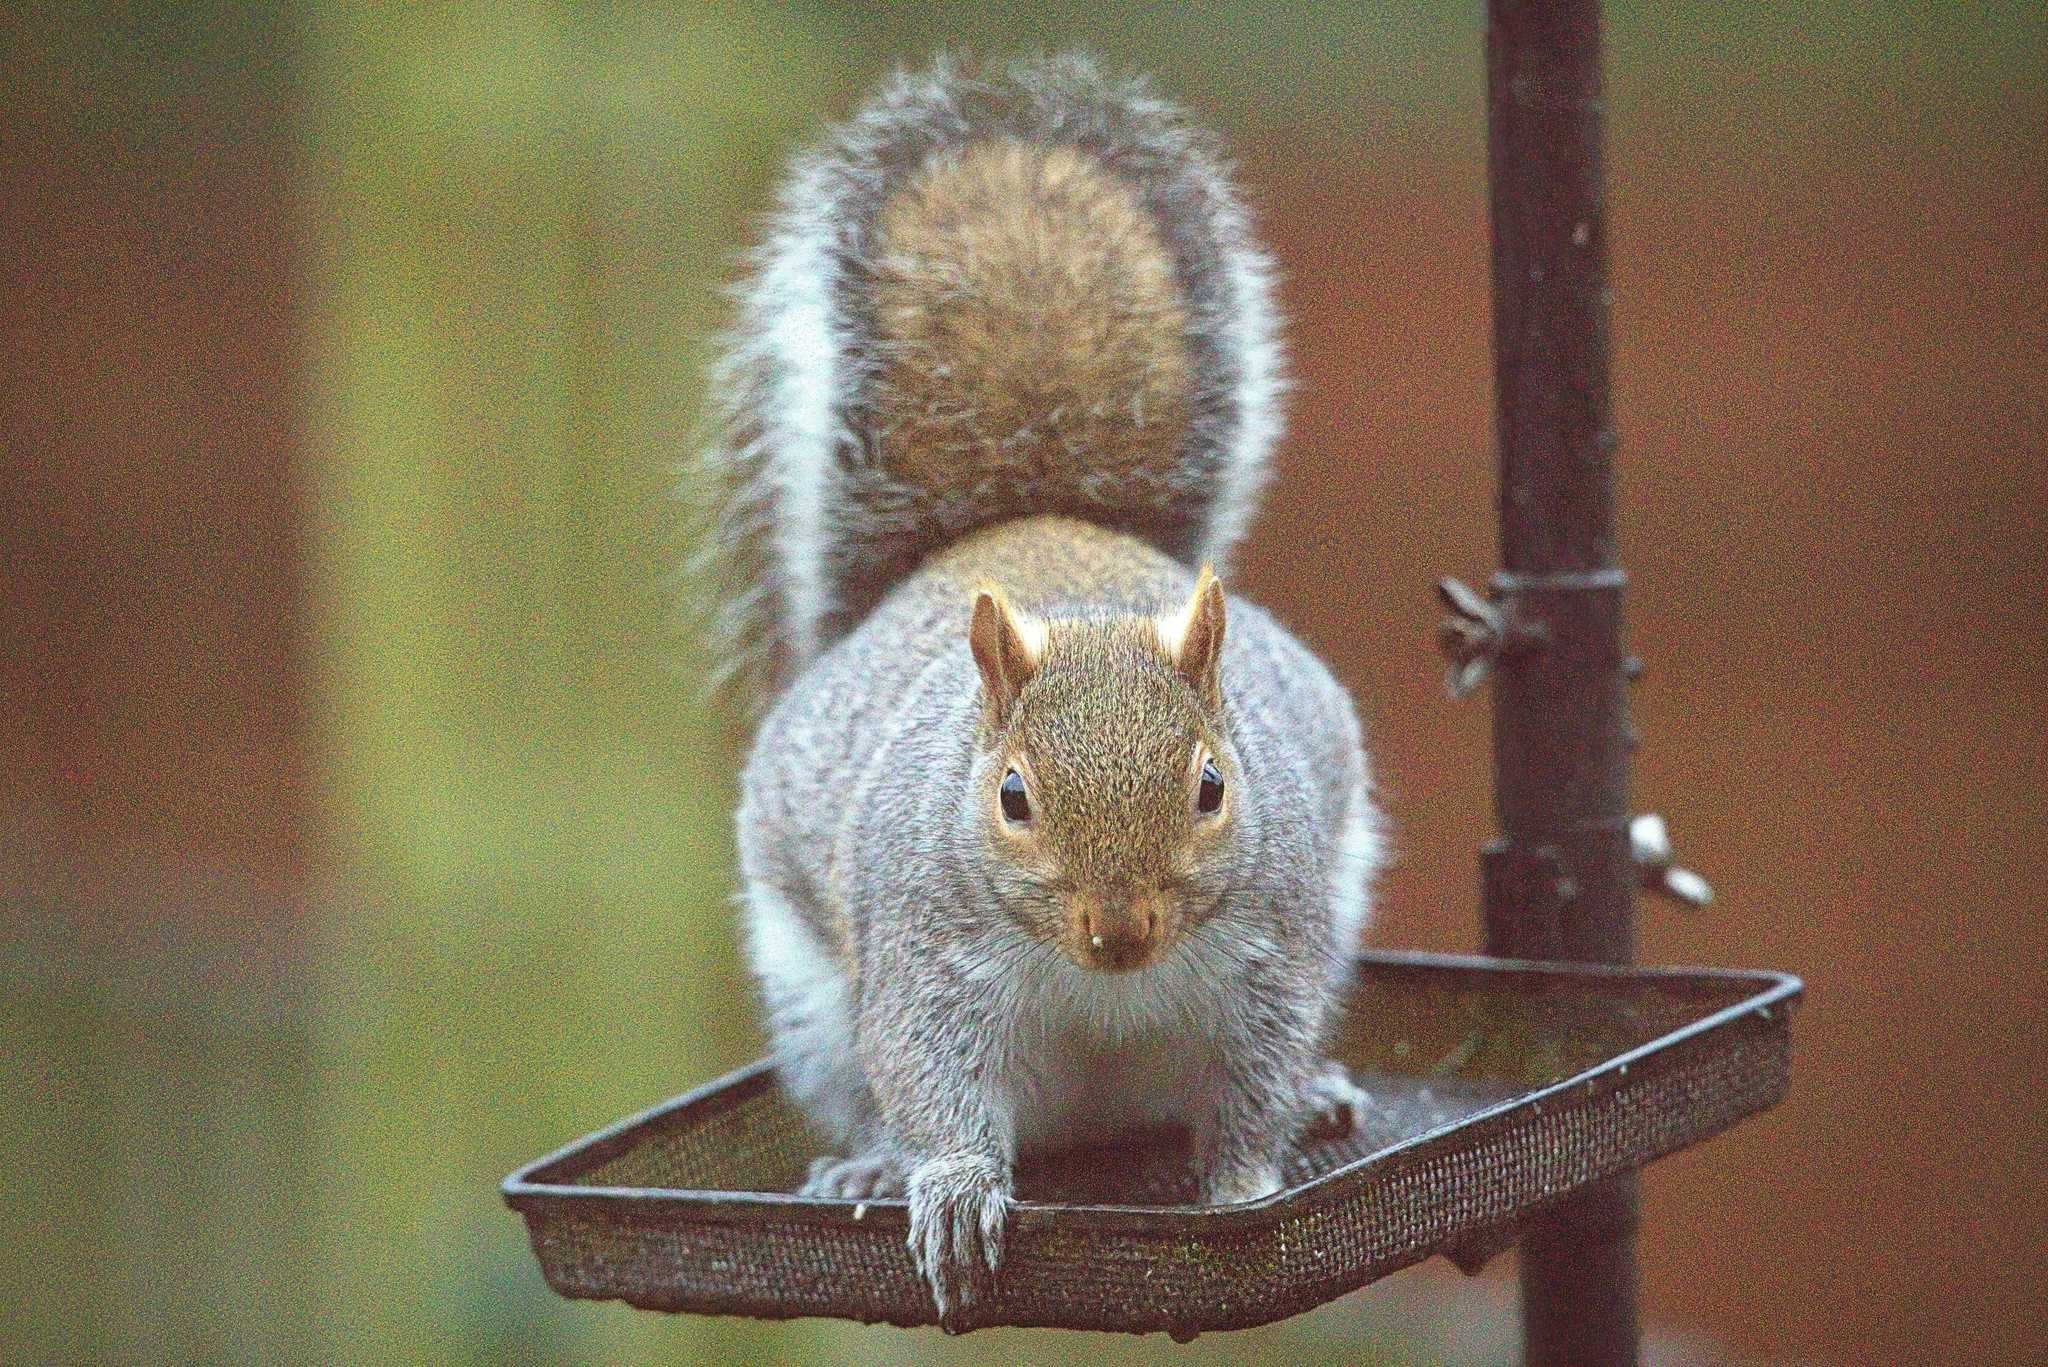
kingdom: Animalia
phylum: Chordata
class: Mammalia
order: Rodentia
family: Sciuridae
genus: Sciurus
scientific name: Sciurus carolinensis
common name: Eastern gray squirrel
